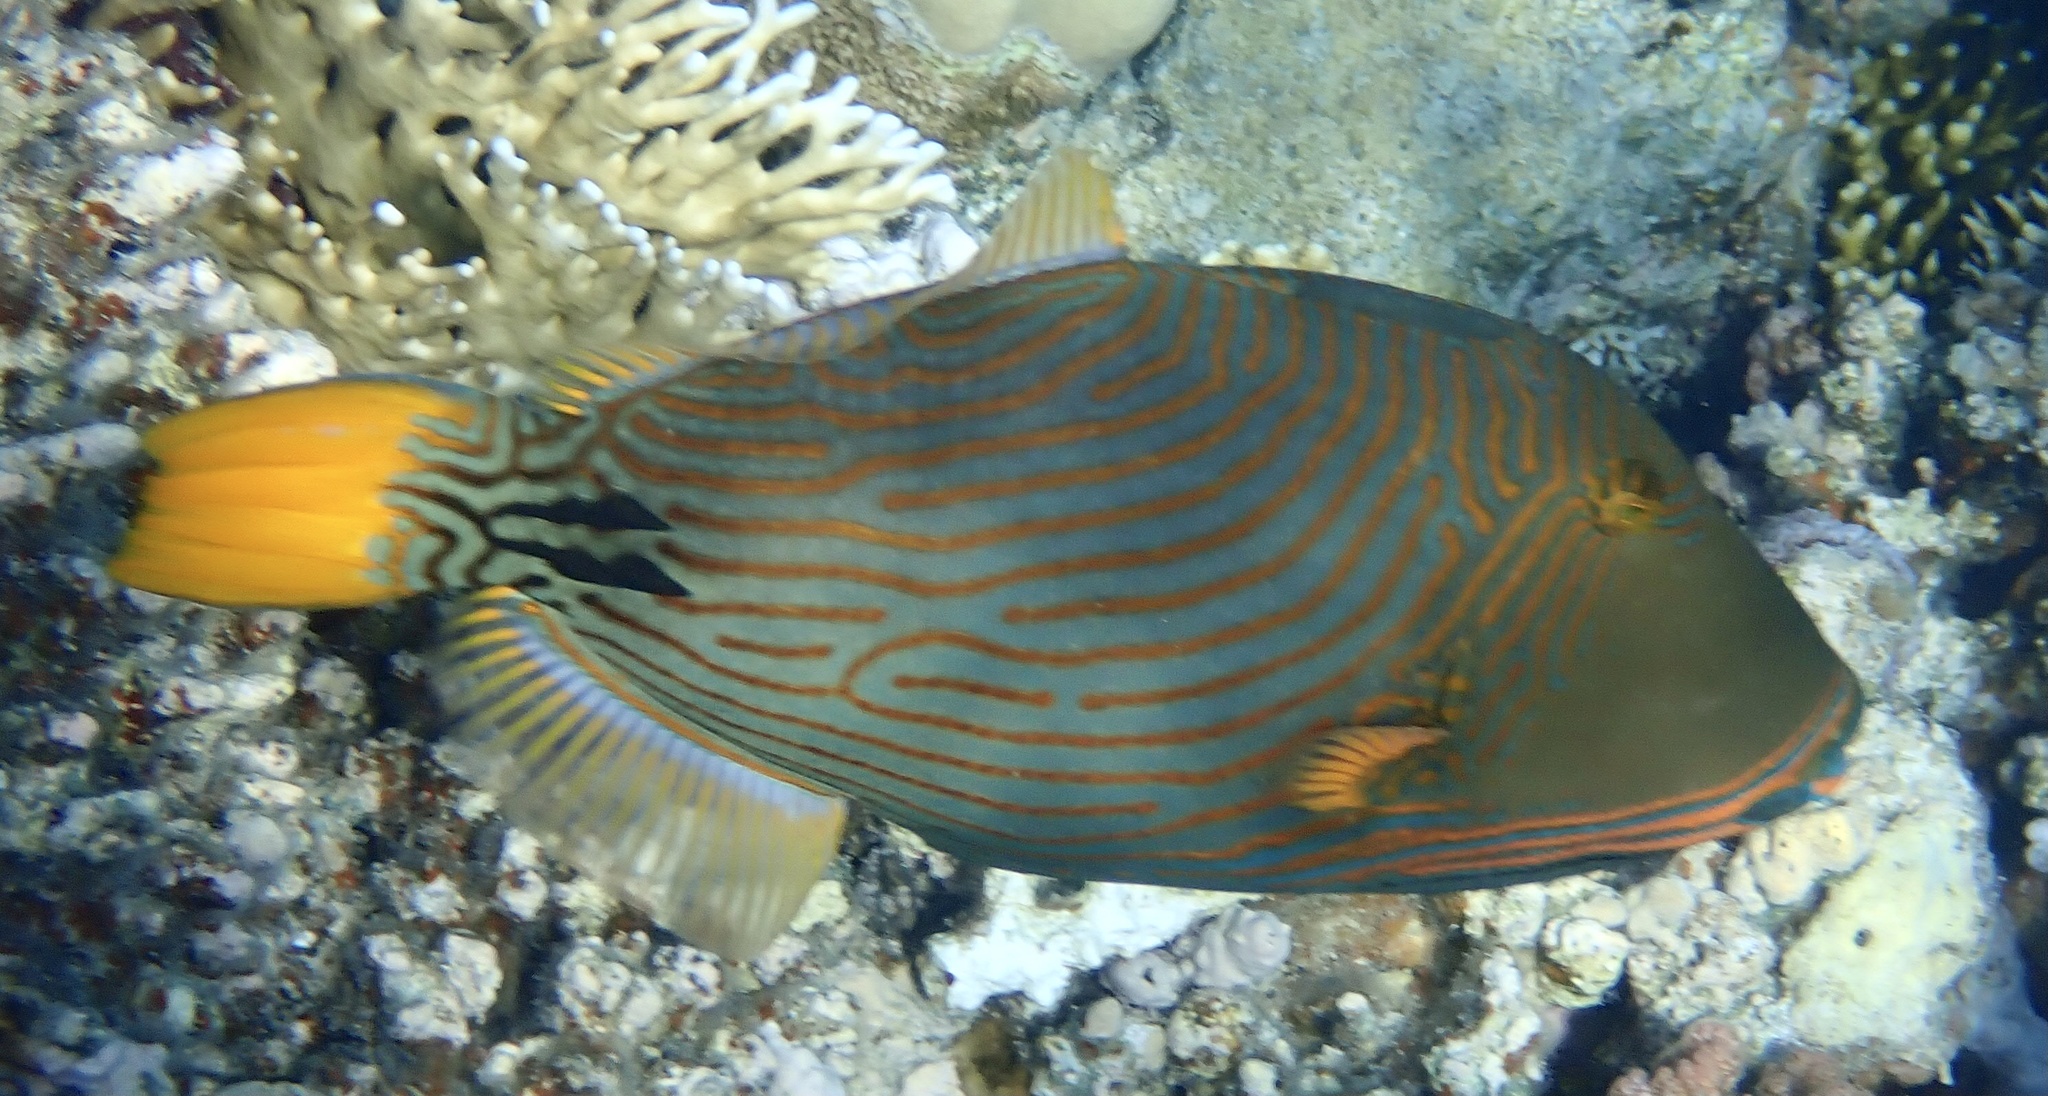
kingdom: Animalia
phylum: Chordata
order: Tetraodontiformes
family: Balistidae
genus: Balistapus
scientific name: Balistapus undulatus
